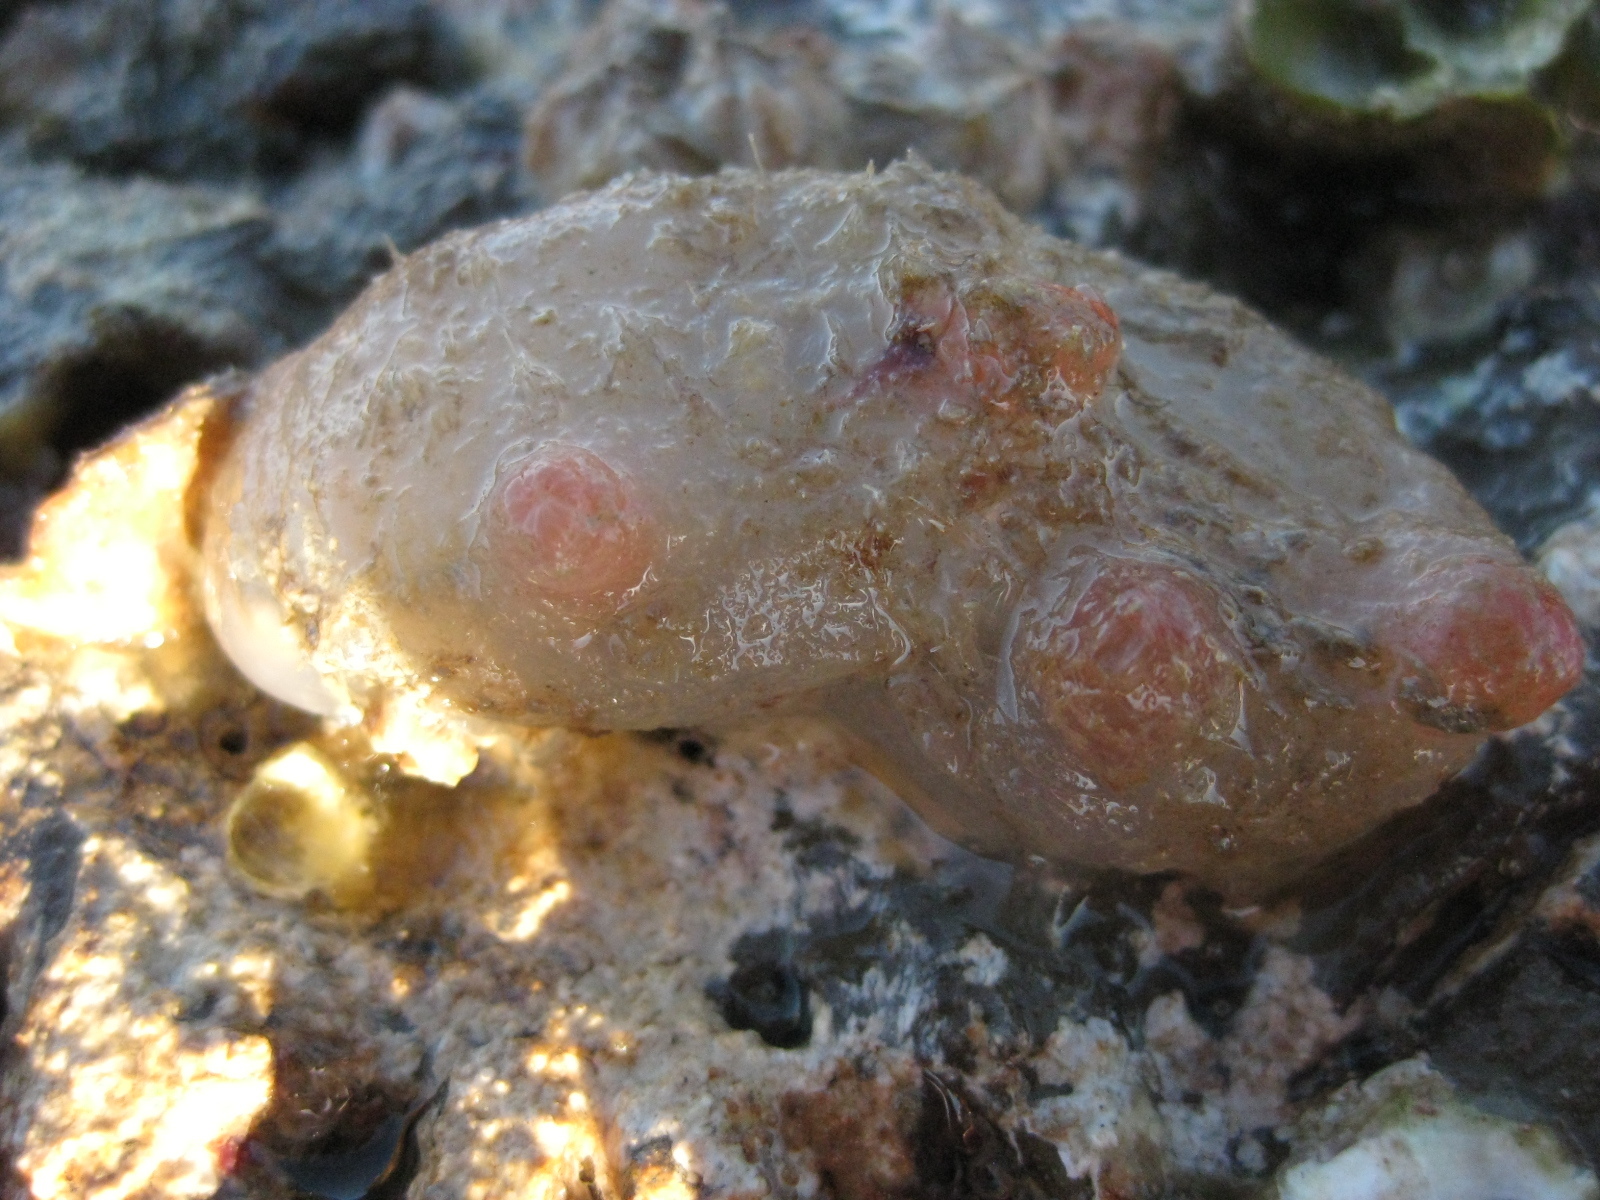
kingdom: Animalia
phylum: Chordata
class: Ascidiacea
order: Phlebobranchia
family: Corellidae
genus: Corella
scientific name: Corella eumyota
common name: Orange-tipped sea squirt
